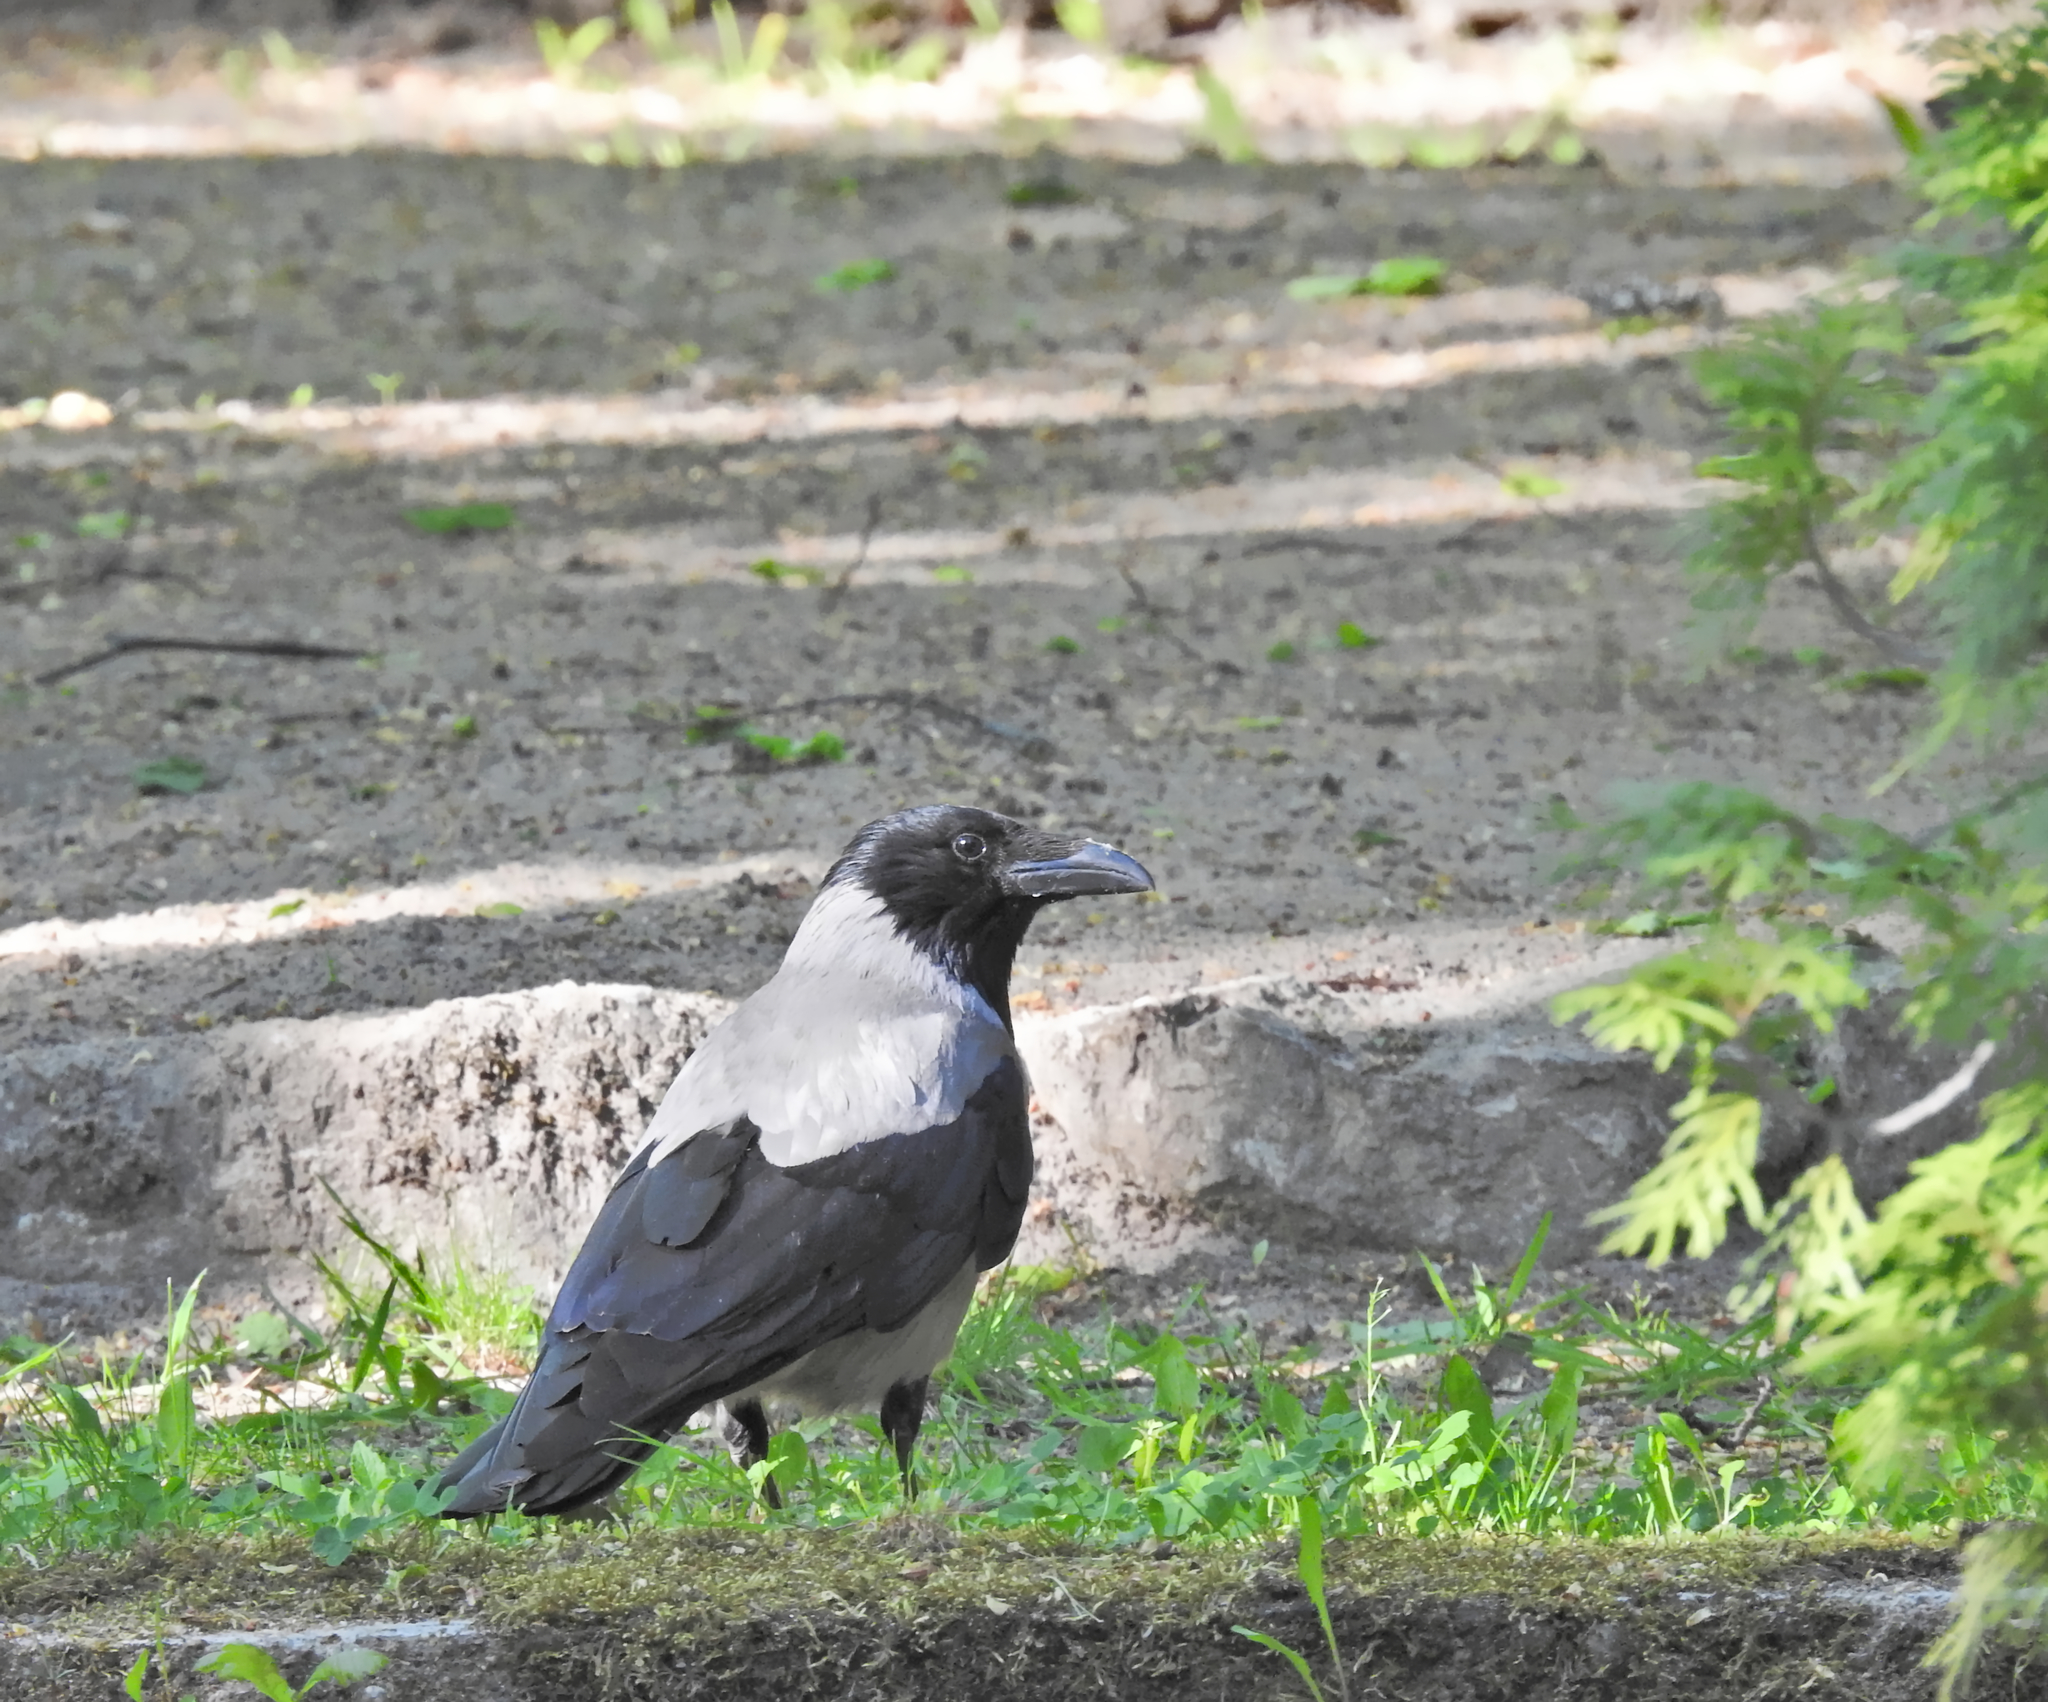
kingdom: Animalia
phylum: Chordata
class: Aves
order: Passeriformes
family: Corvidae
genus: Corvus
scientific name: Corvus cornix
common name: Hooded crow
